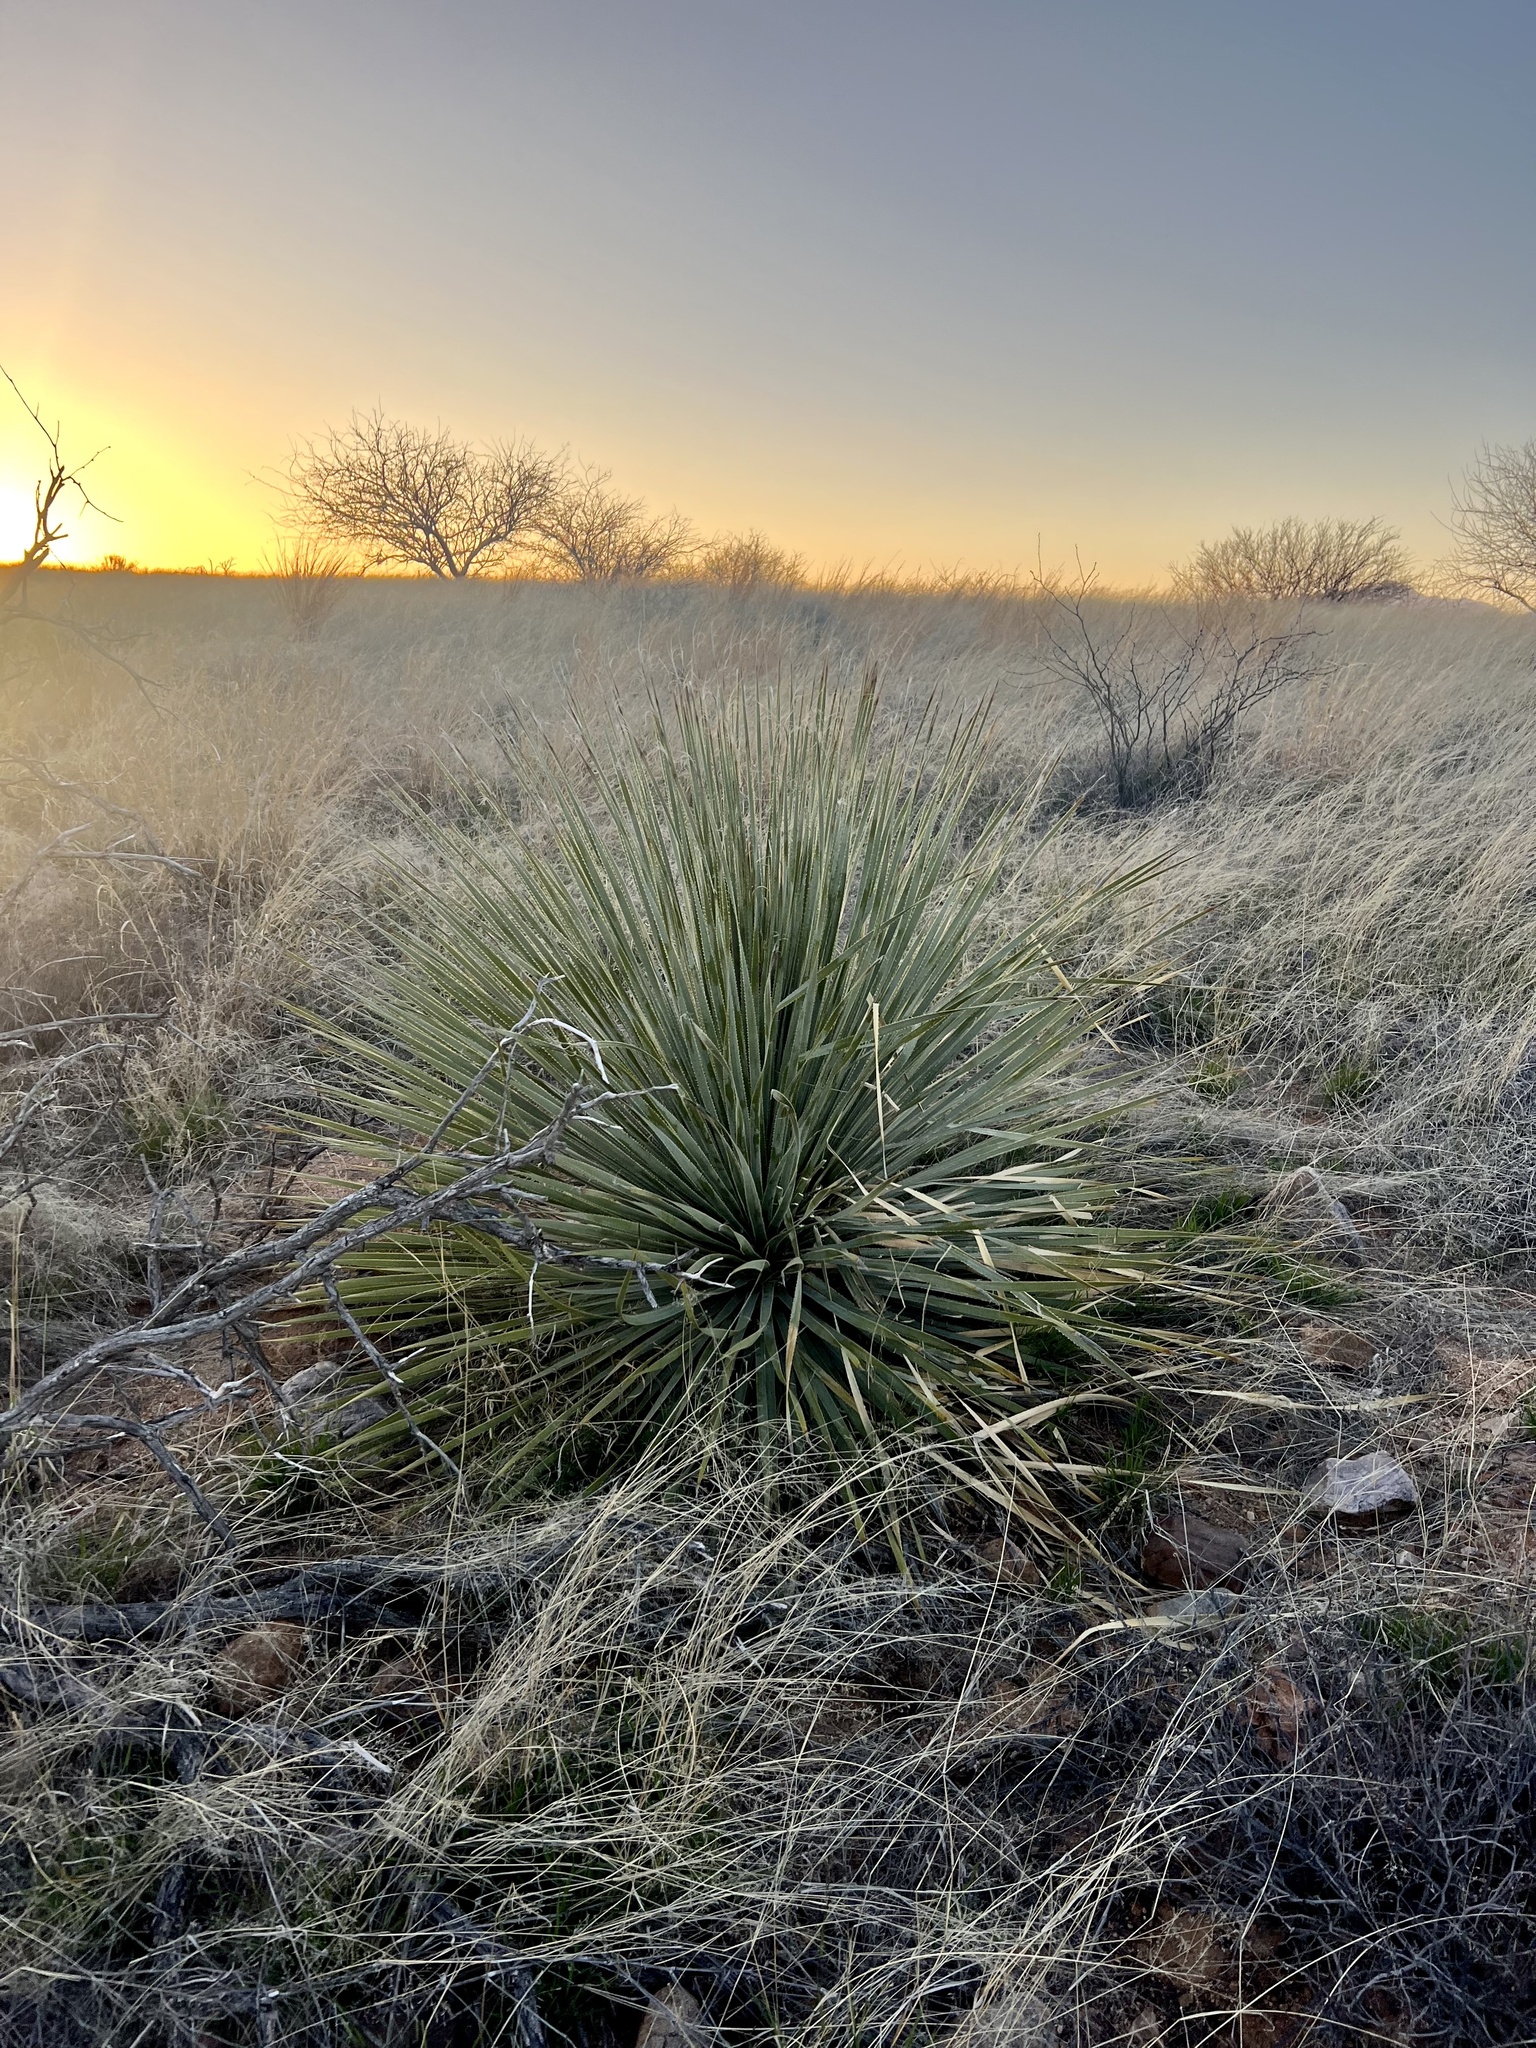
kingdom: Plantae
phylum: Tracheophyta
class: Liliopsida
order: Asparagales
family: Asparagaceae
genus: Dasylirion
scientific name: Dasylirion wheeleri
